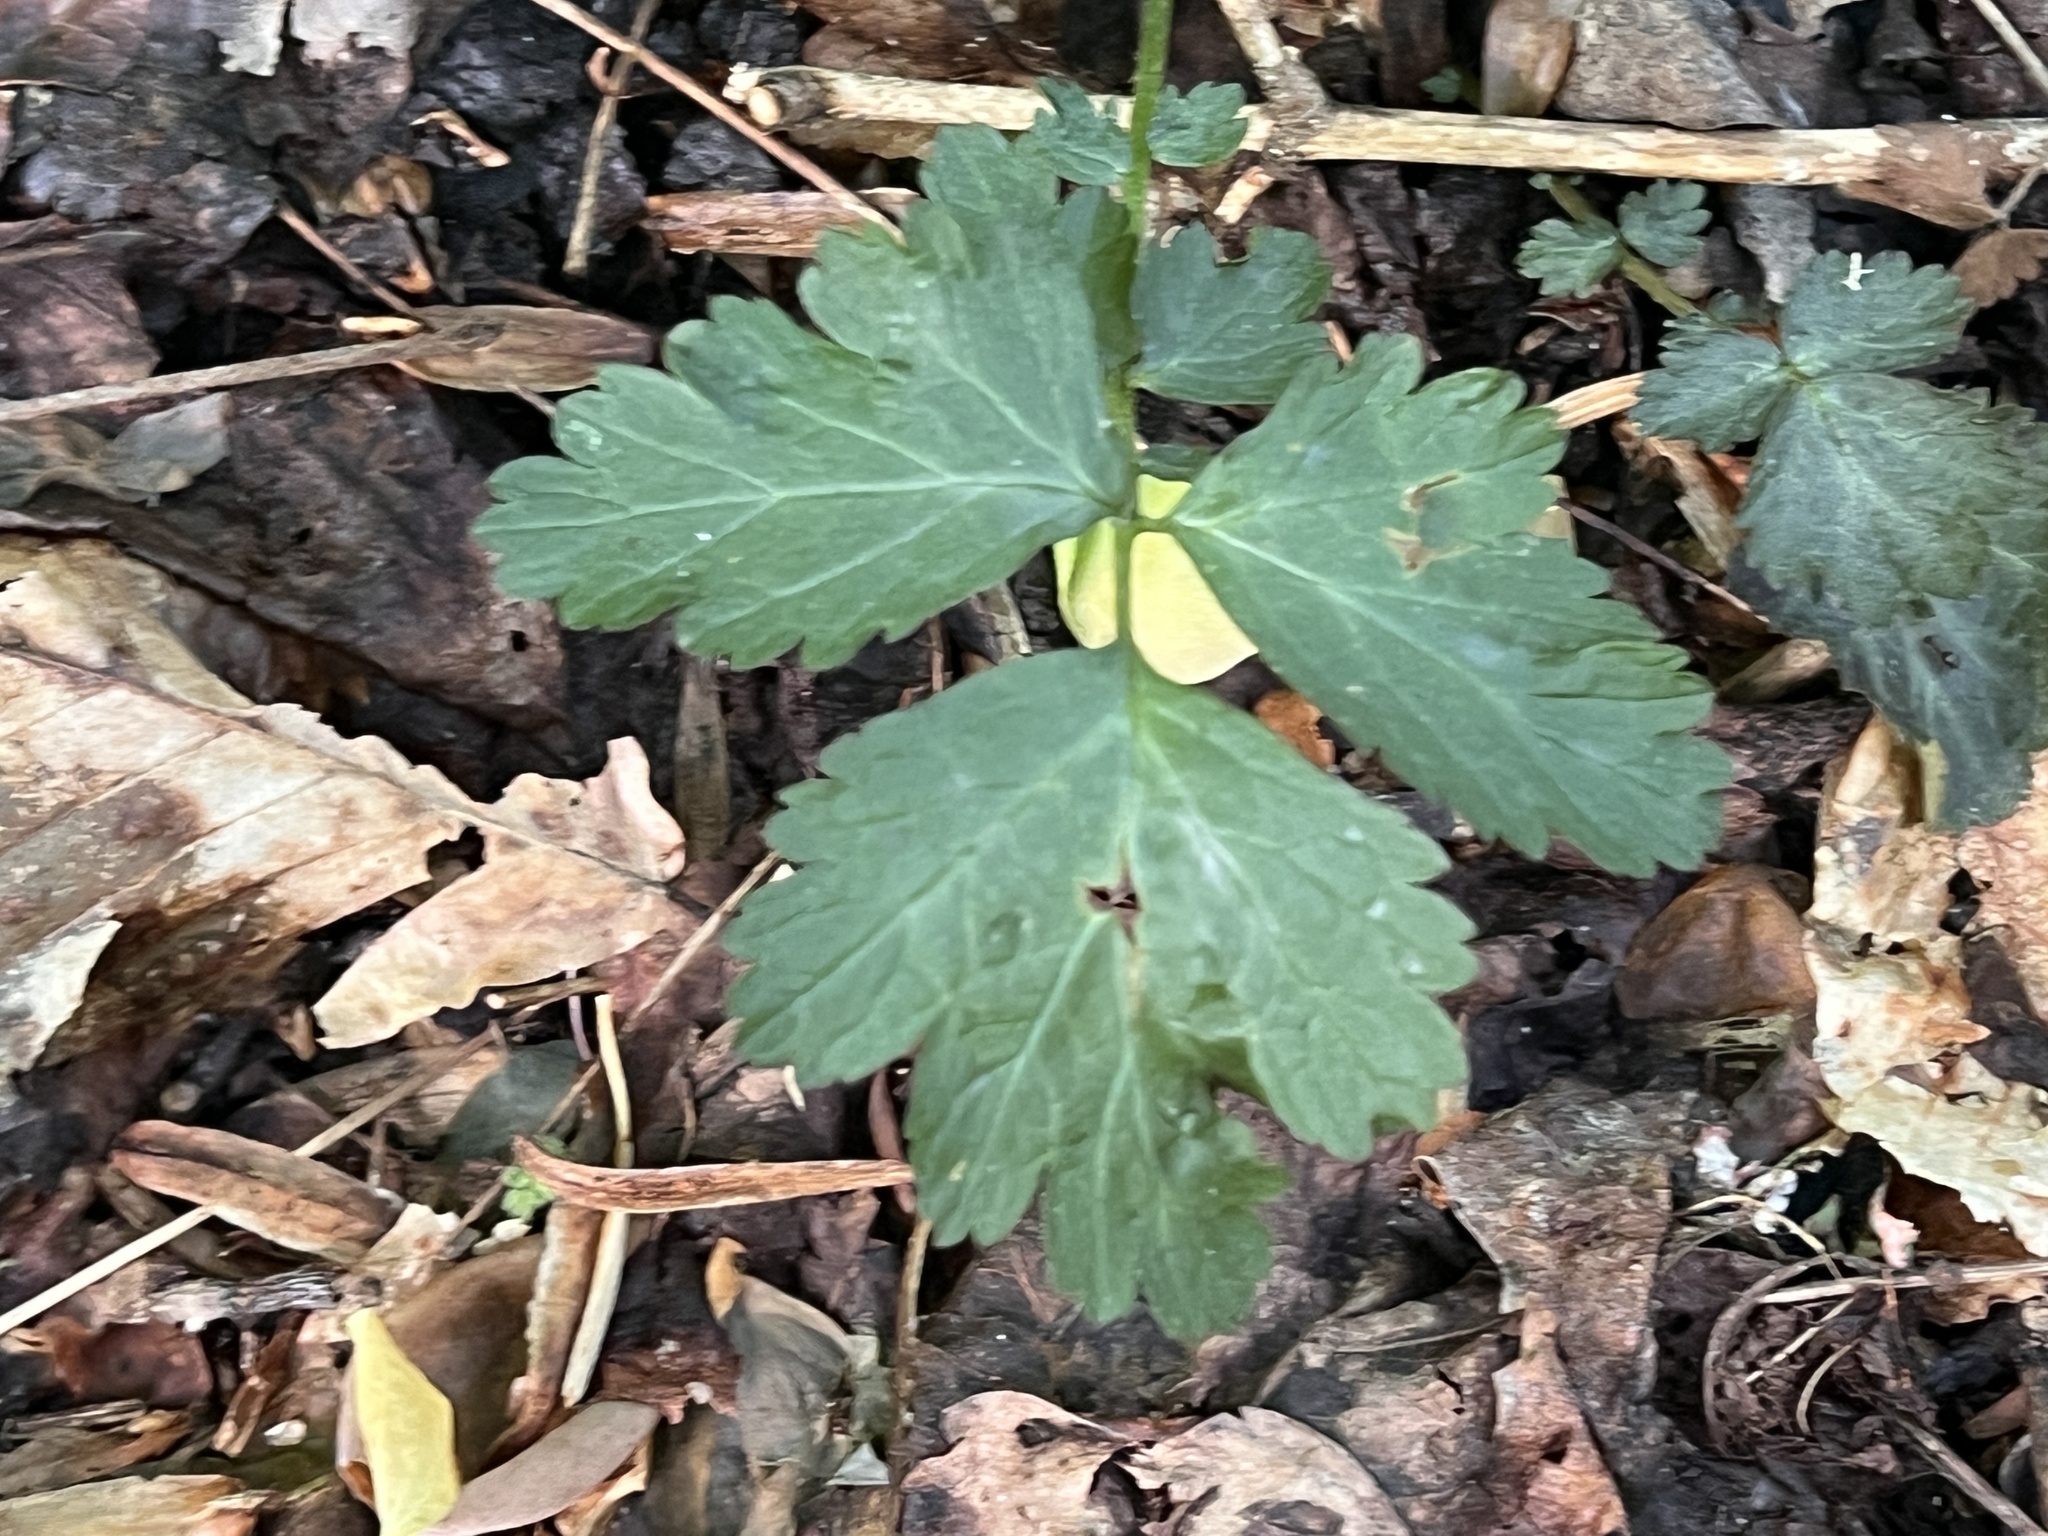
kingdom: Plantae
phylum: Tracheophyta
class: Magnoliopsida
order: Rosales
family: Rosaceae
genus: Geum
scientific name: Geum canadense
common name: White avens
